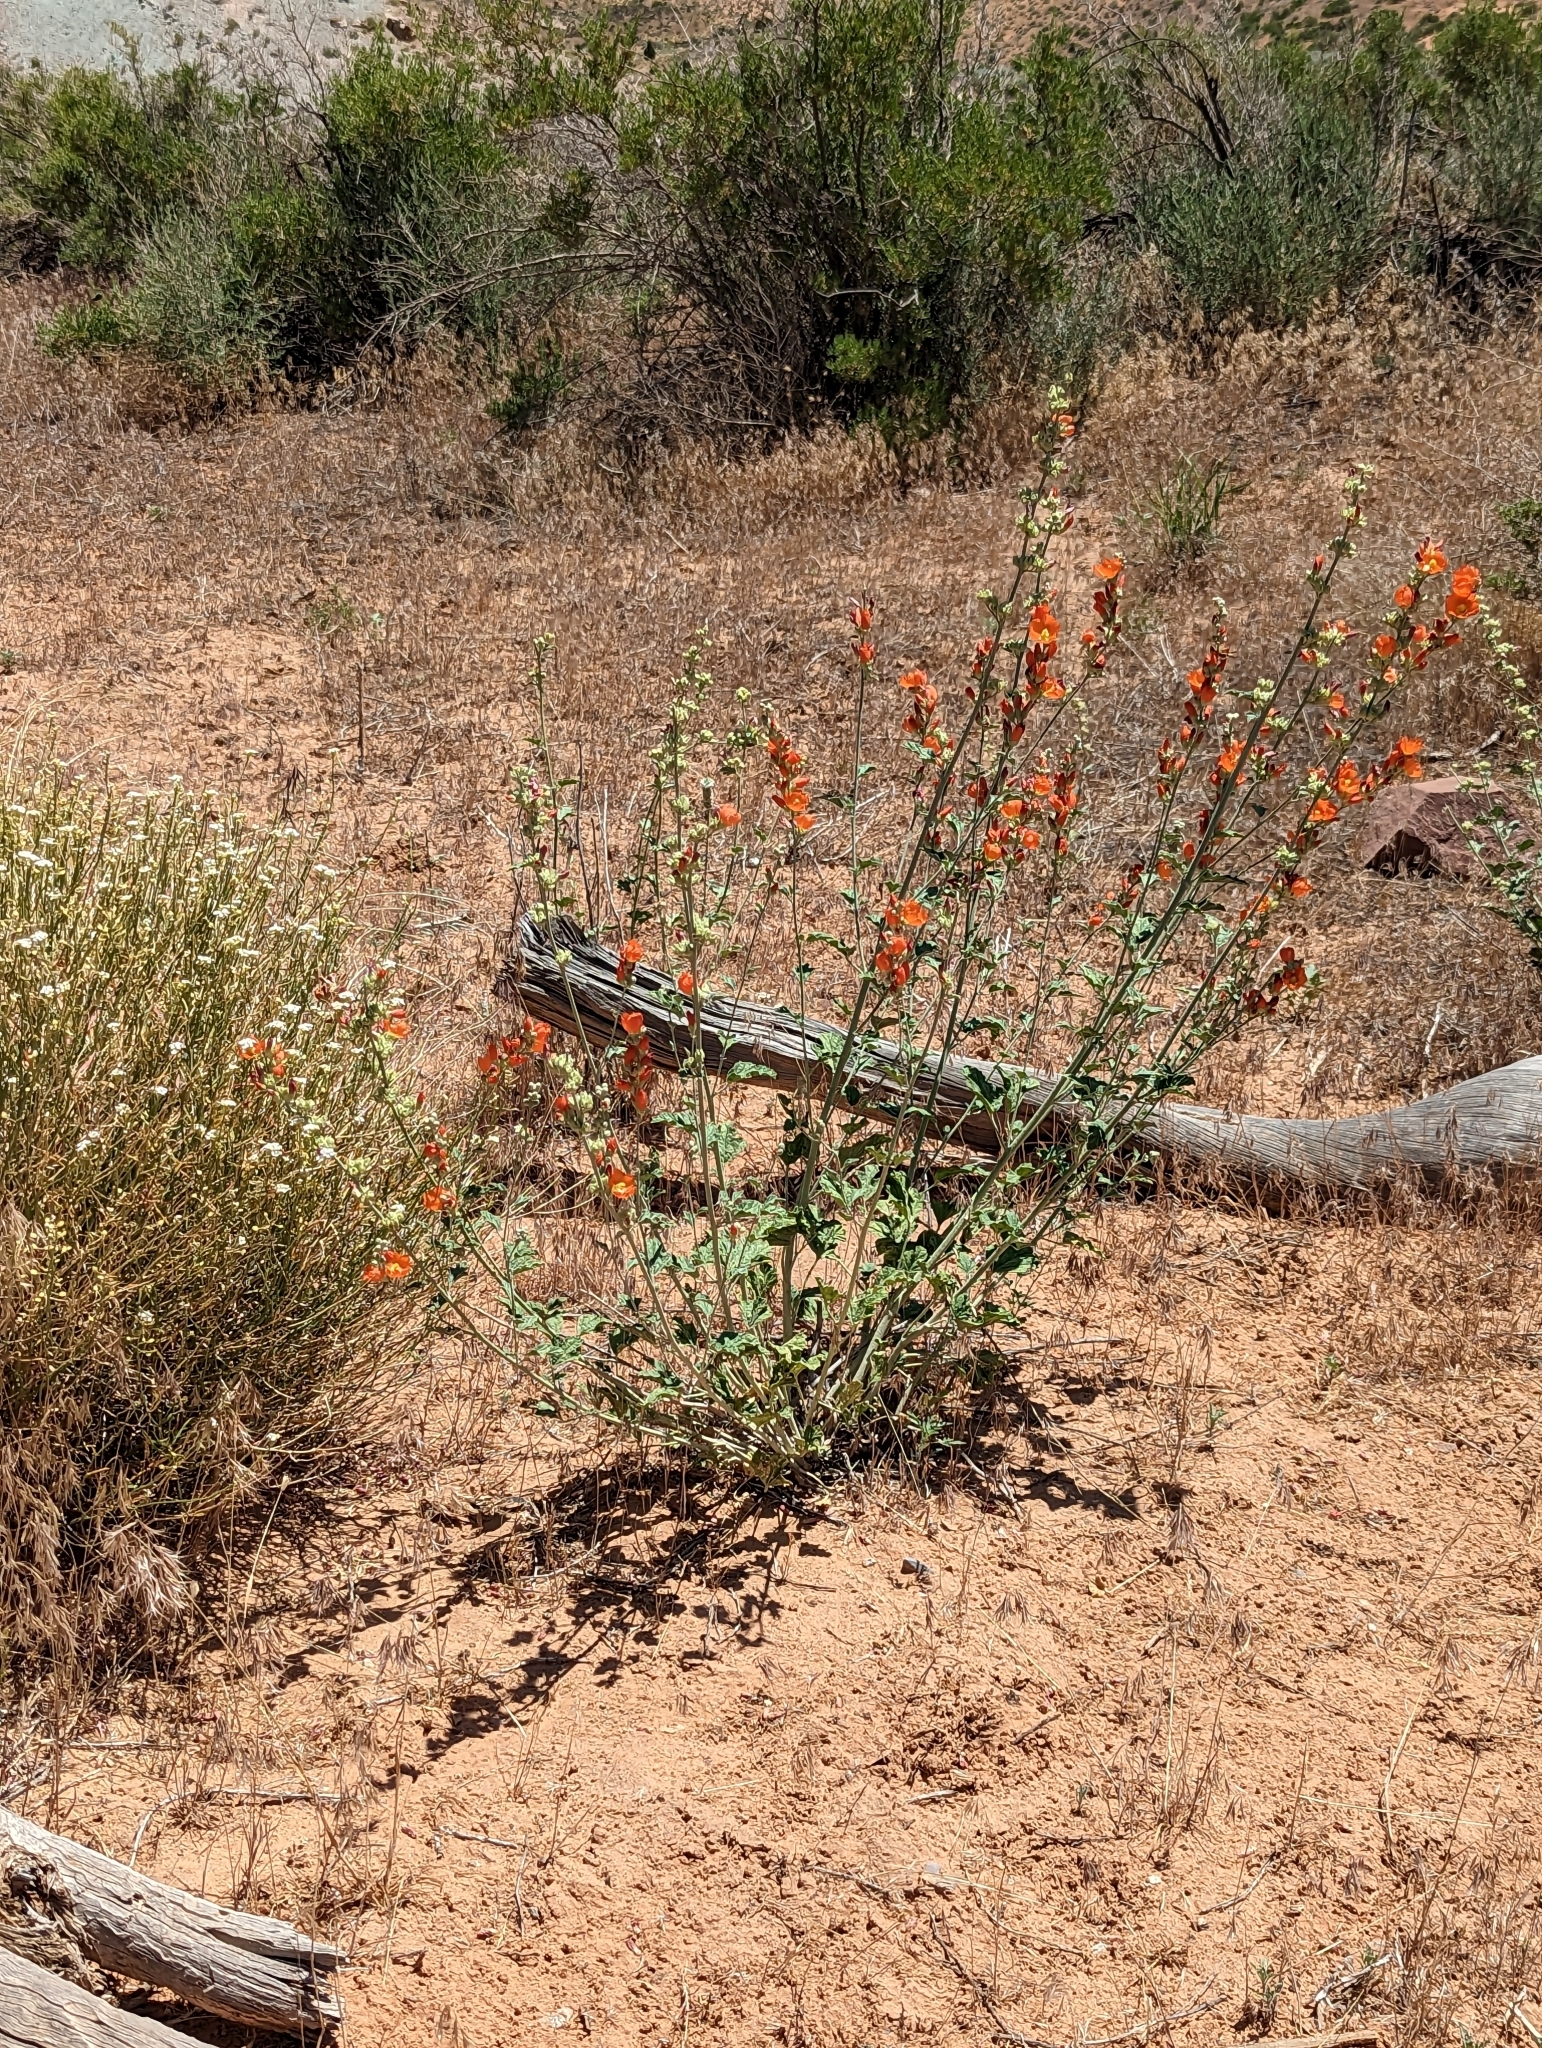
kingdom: Plantae
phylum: Tracheophyta
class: Magnoliopsida
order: Malvales
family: Malvaceae
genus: Sphaeralcea
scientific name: Sphaeralcea parvifolia
